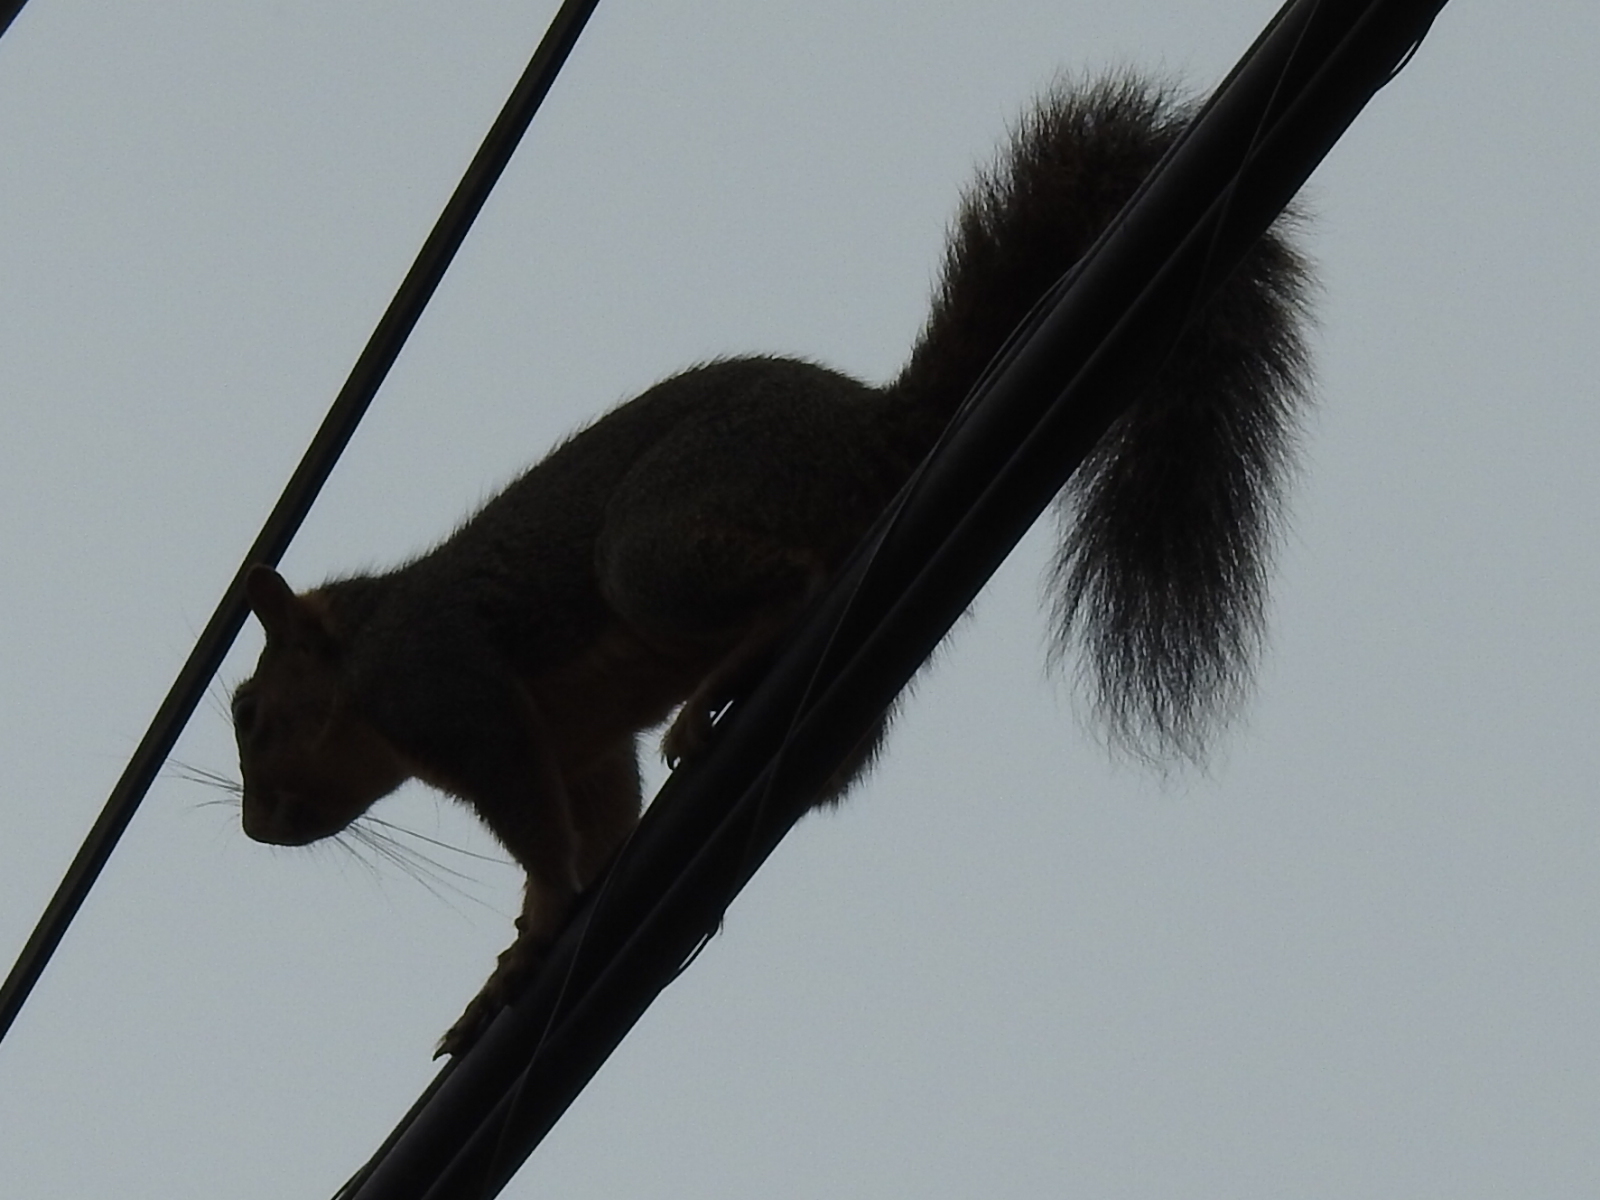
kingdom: Animalia
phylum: Chordata
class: Mammalia
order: Rodentia
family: Sciuridae
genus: Sciurus
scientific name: Sciurus niger
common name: Fox squirrel
